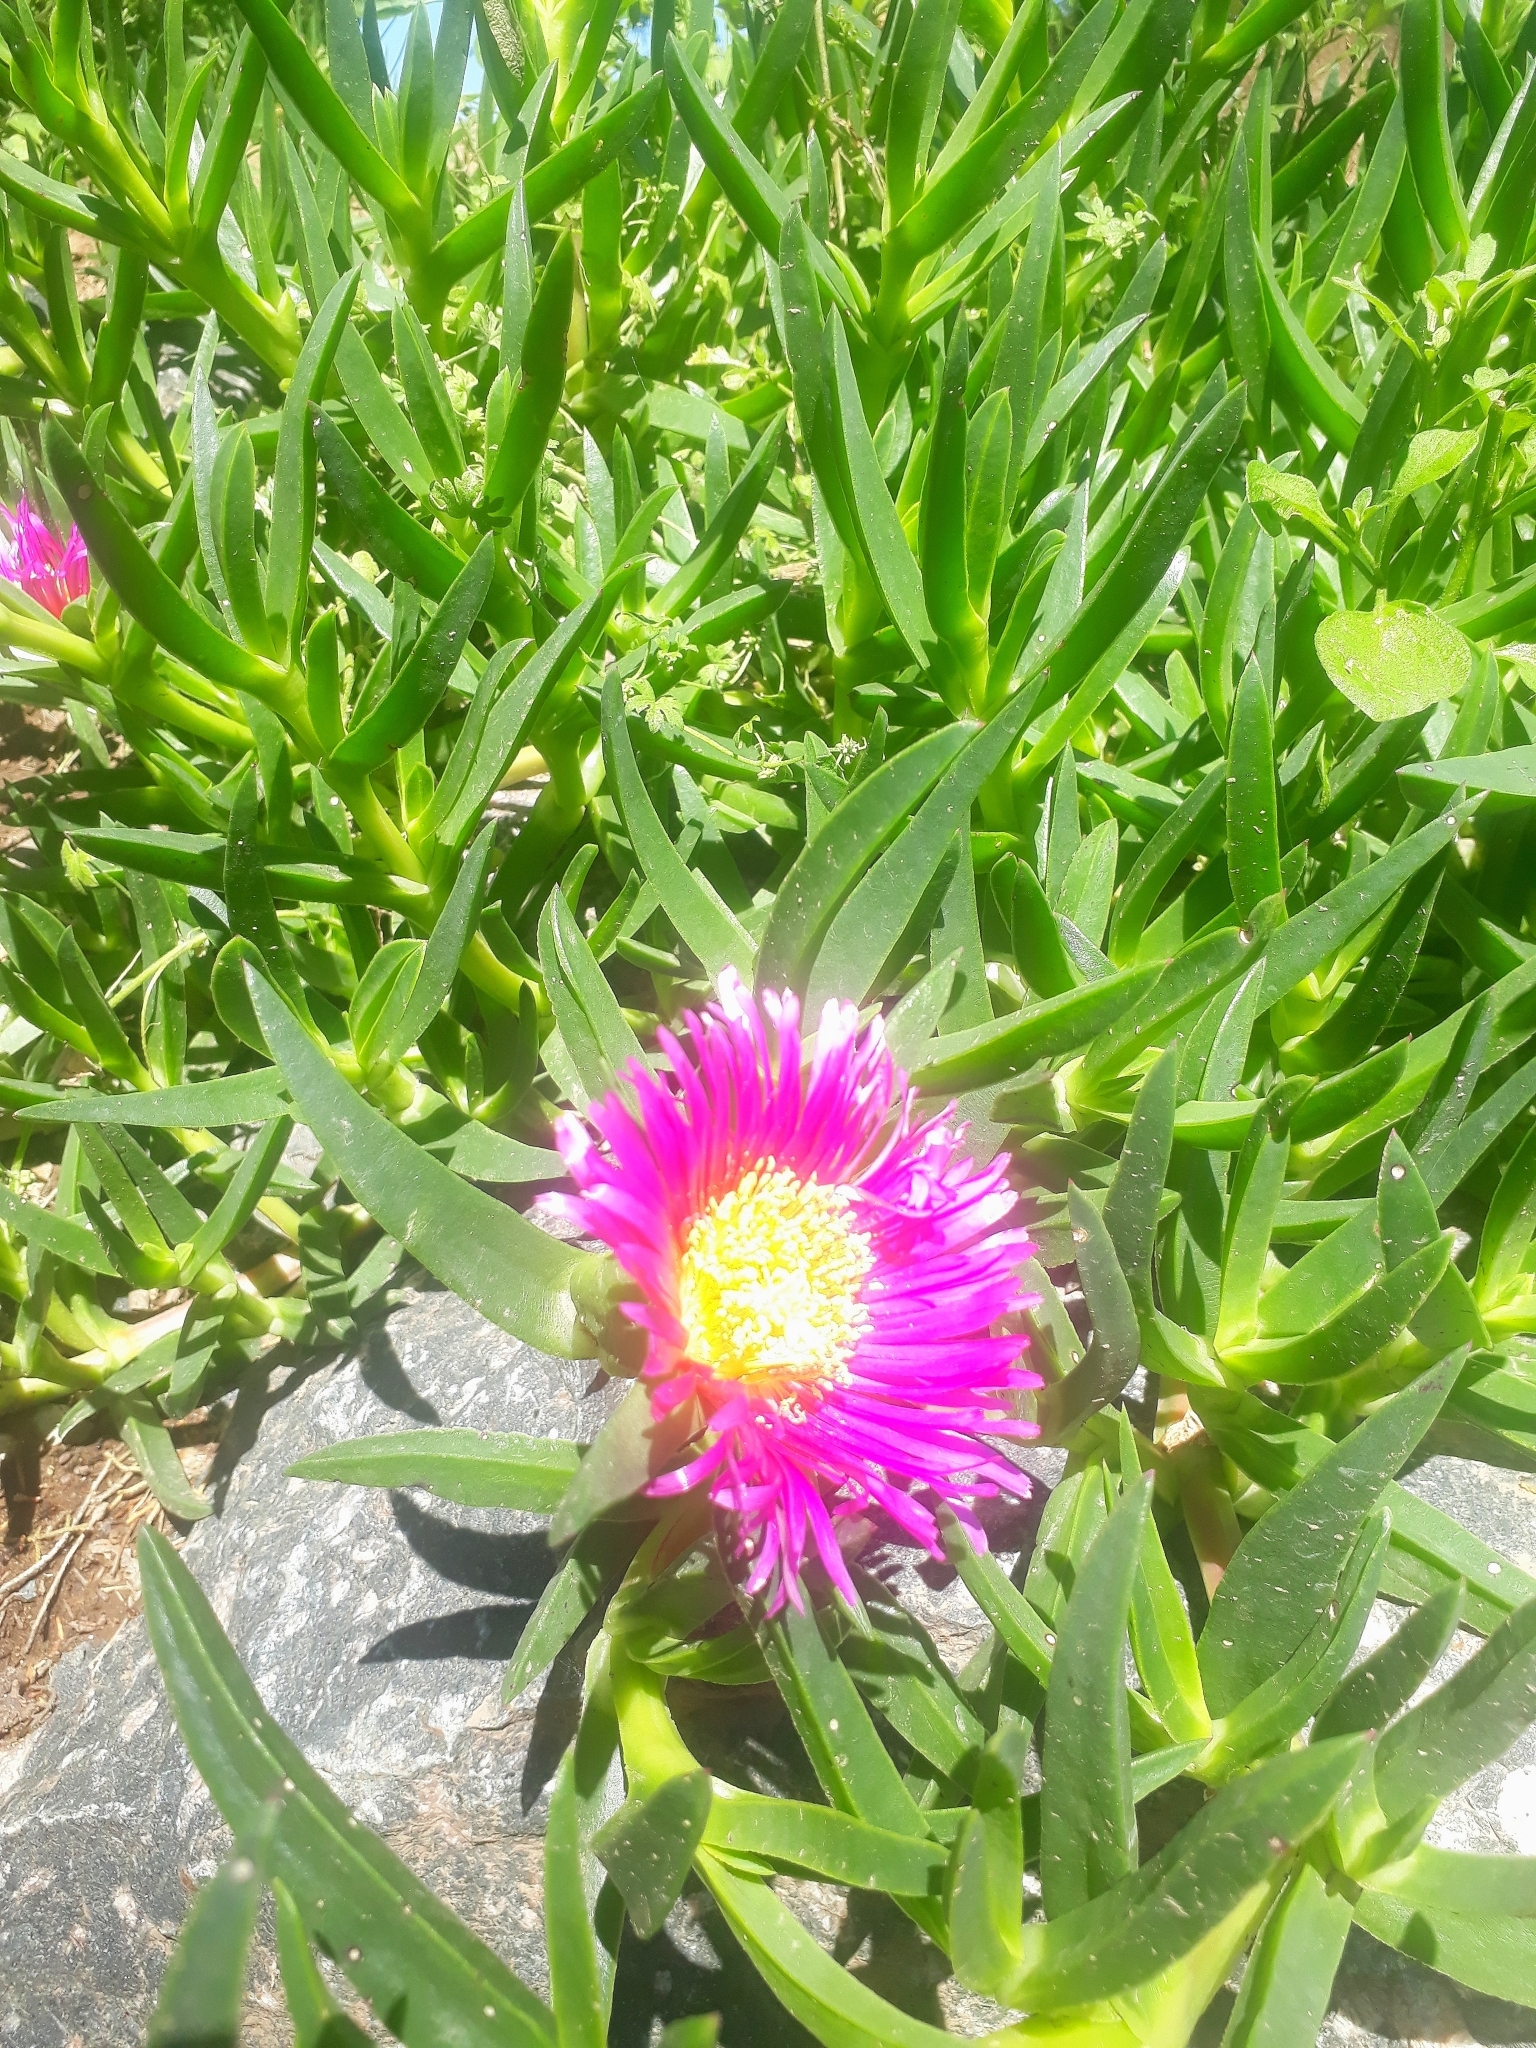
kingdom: Plantae
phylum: Tracheophyta
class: Magnoliopsida
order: Caryophyllales
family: Aizoaceae
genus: Carpobrotus
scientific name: Carpobrotus chilensis
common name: Sea fig
